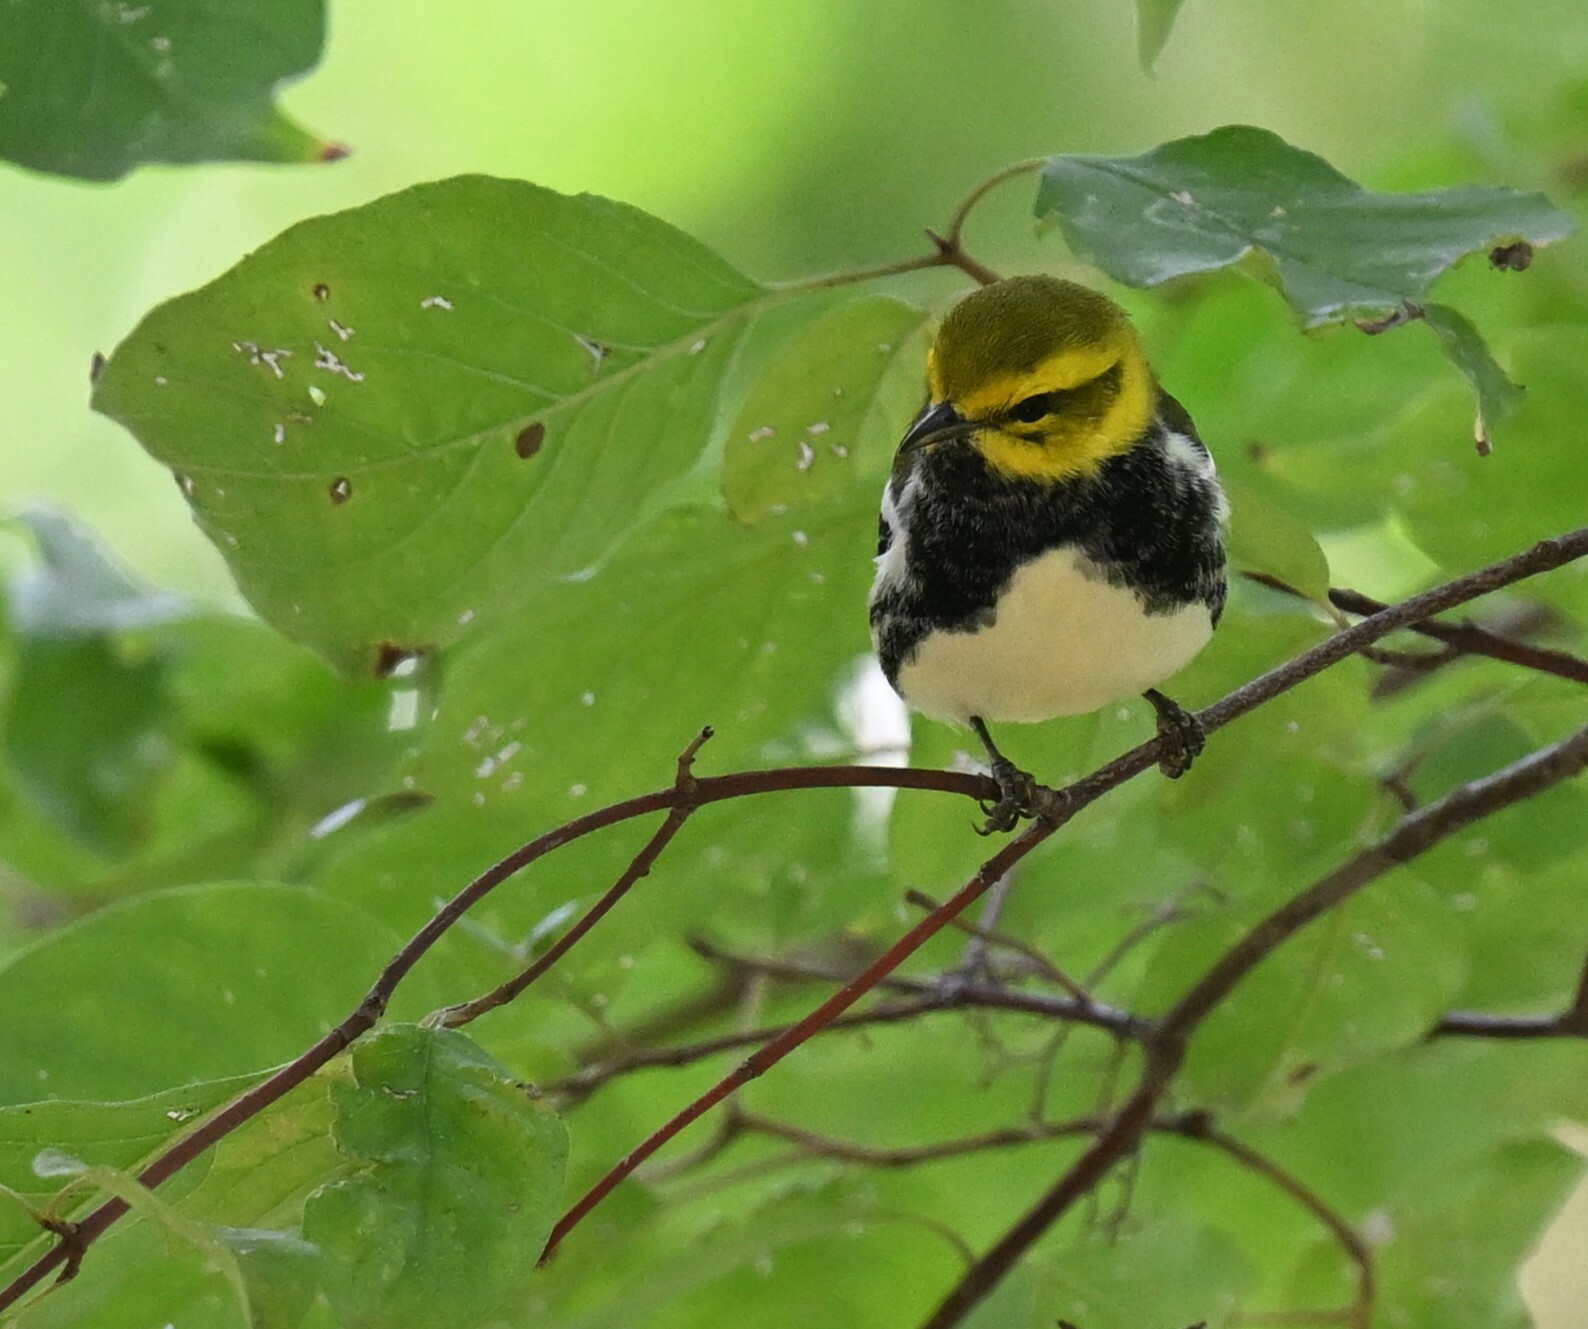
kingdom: Animalia
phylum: Chordata
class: Aves
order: Passeriformes
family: Parulidae
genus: Setophaga
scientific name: Setophaga virens
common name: Black-throated green warbler
